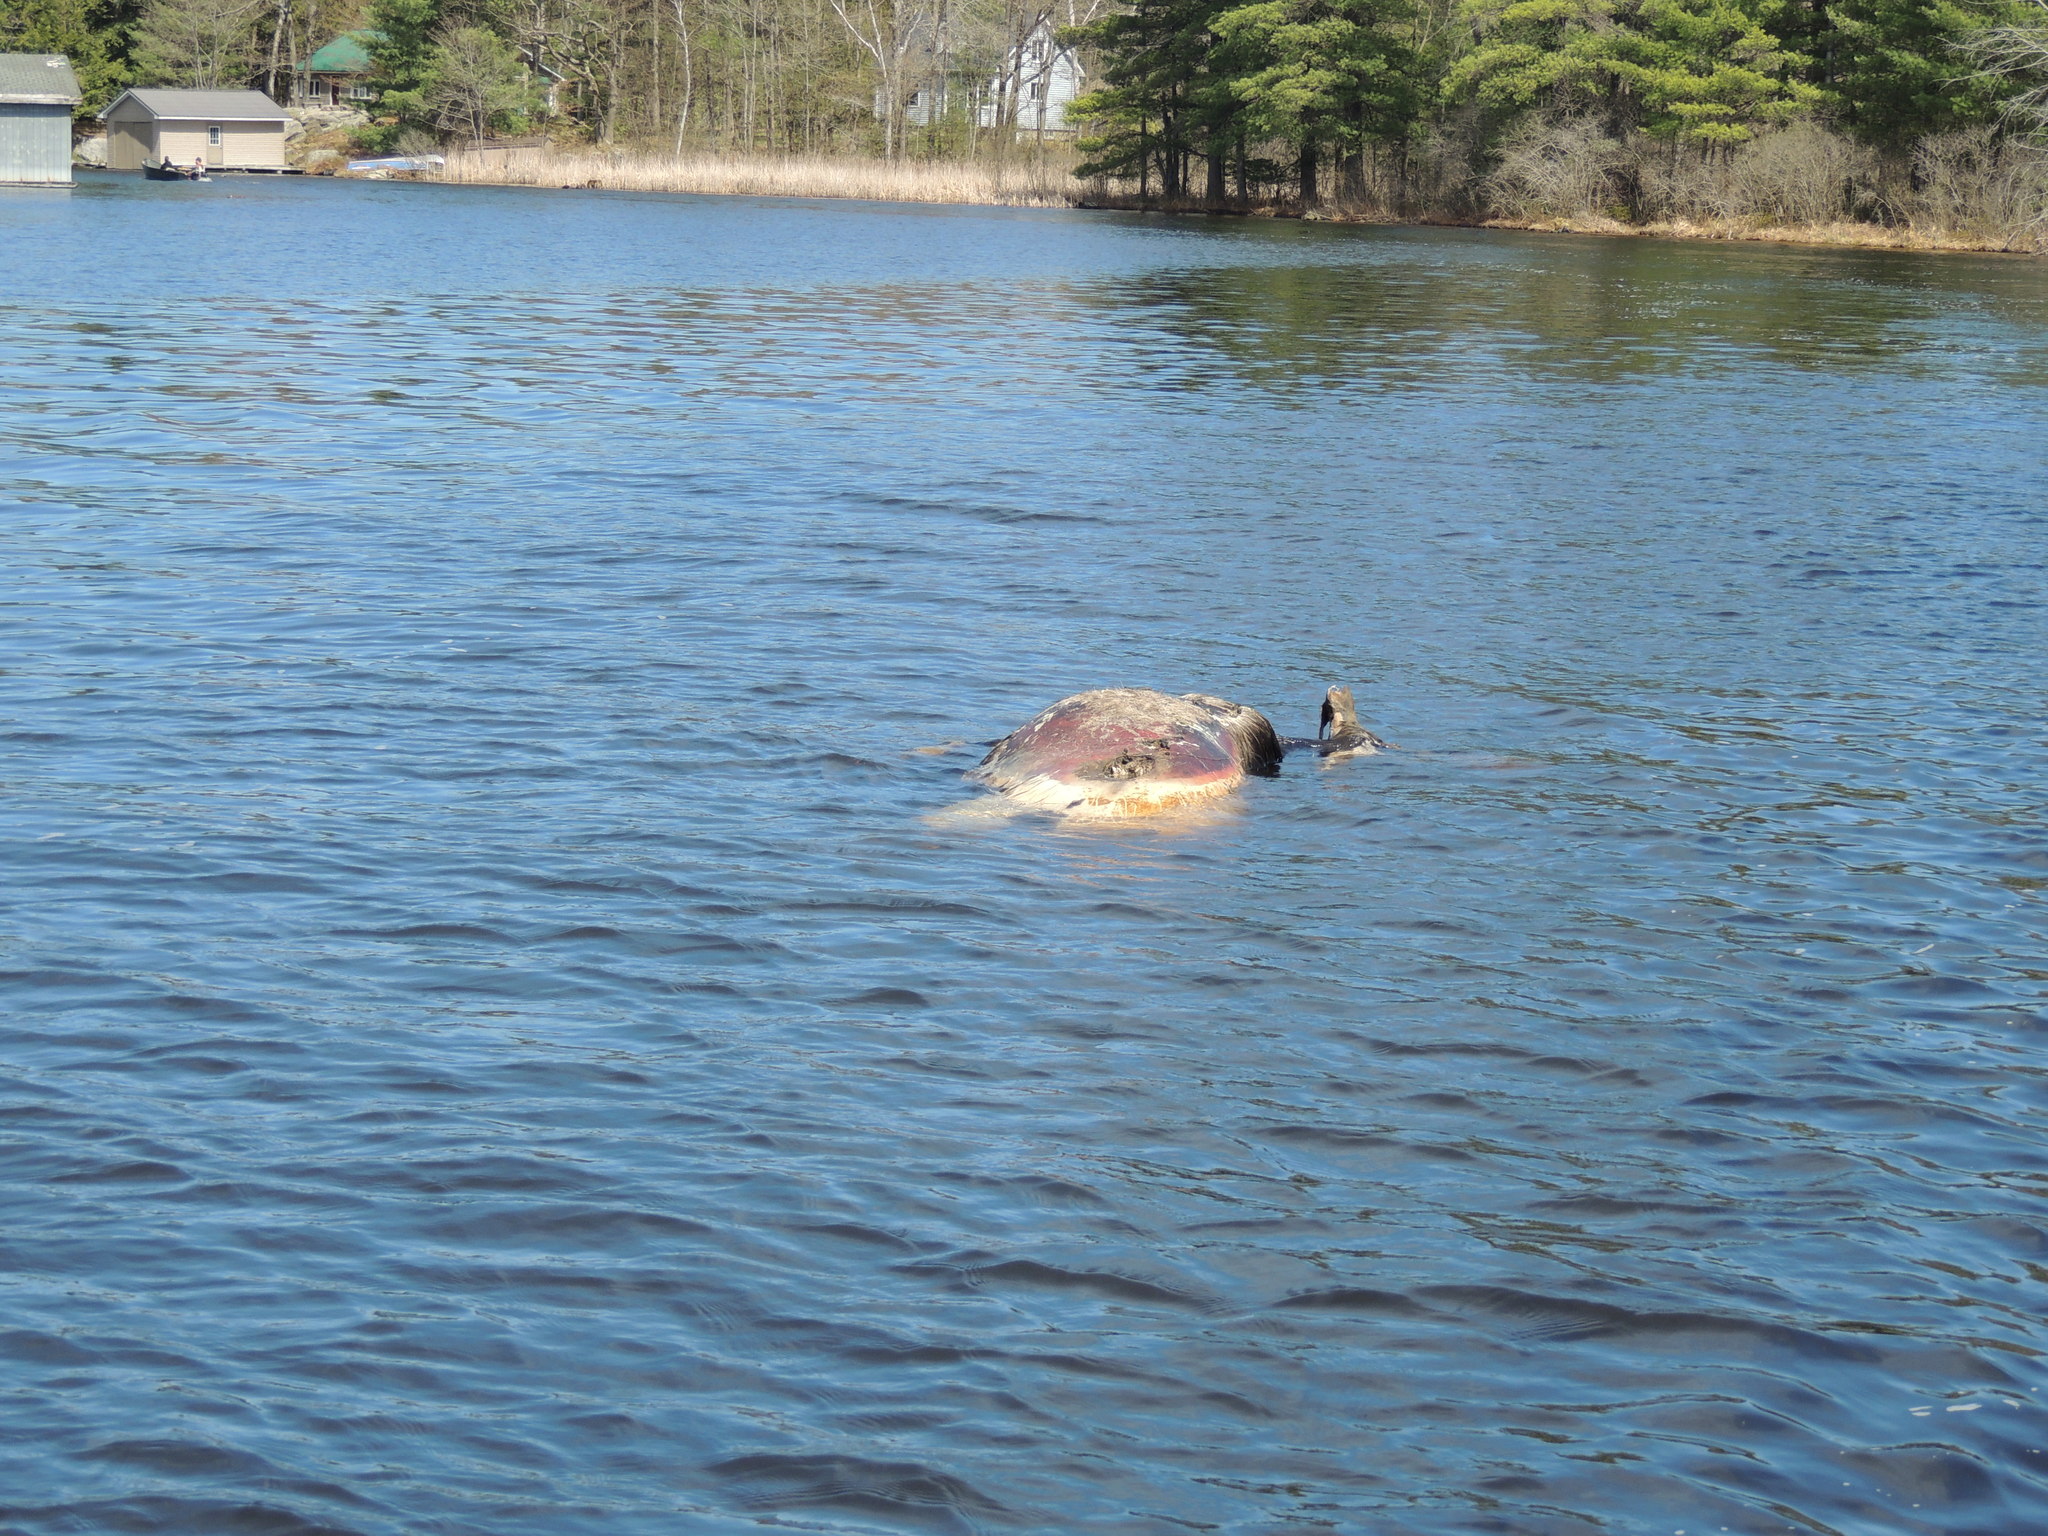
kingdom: Animalia
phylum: Chordata
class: Mammalia
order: Artiodactyla
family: Cervidae
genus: Alces
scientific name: Alces alces
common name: Moose
